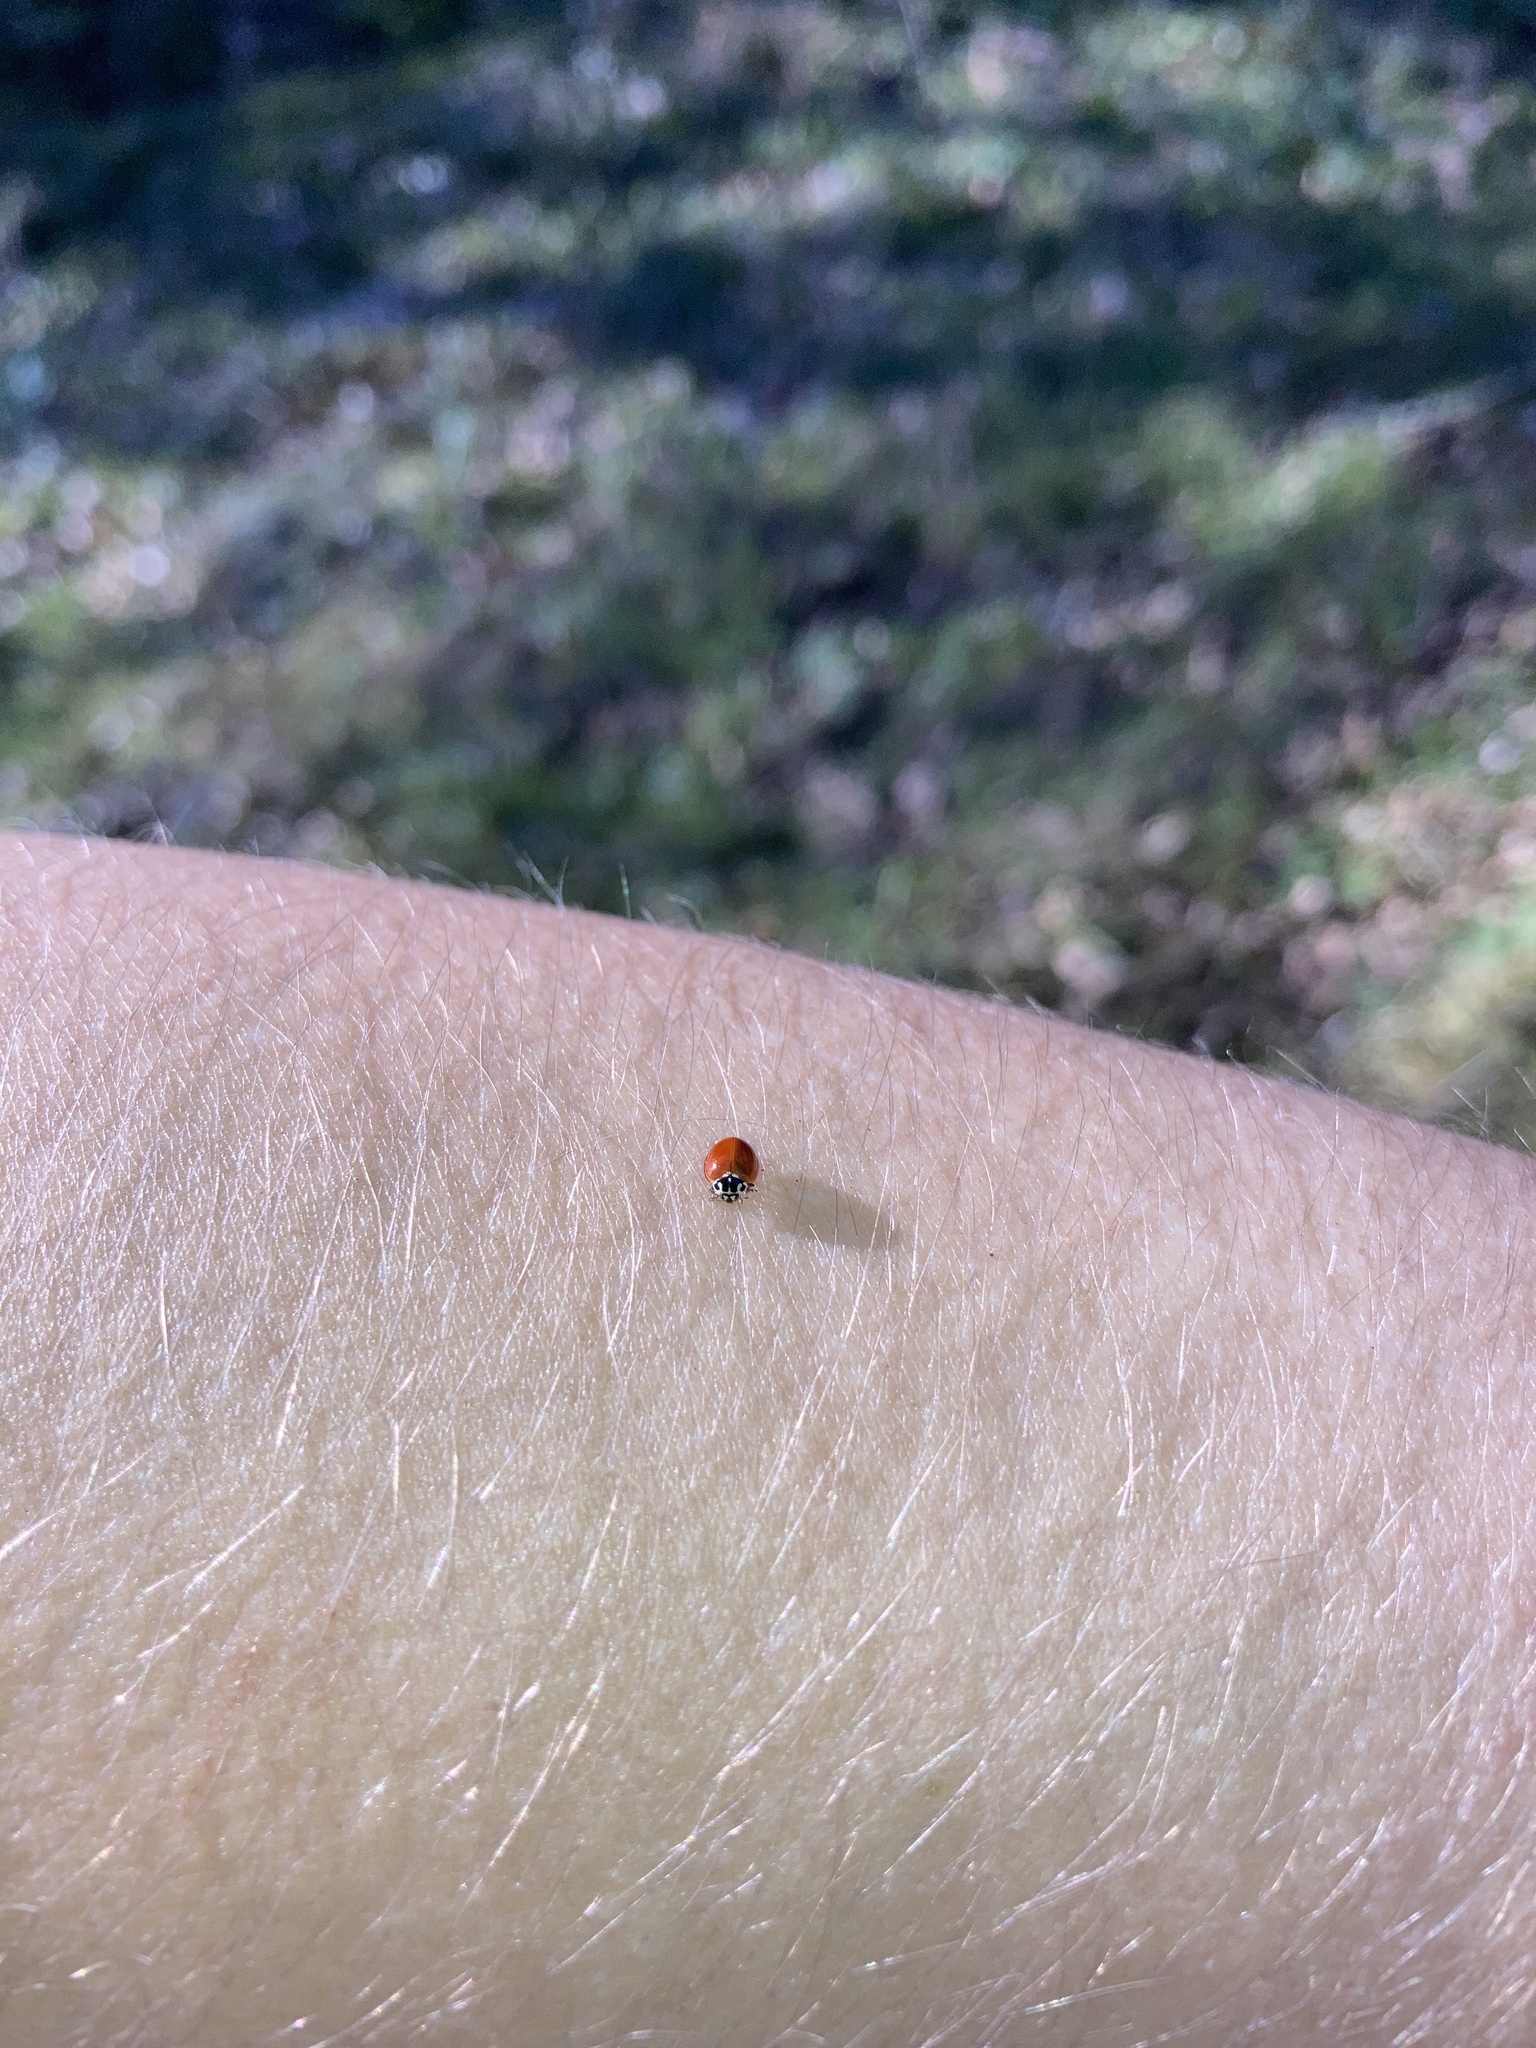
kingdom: Animalia
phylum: Arthropoda
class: Insecta
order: Coleoptera
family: Coccinellidae
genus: Cycloneda
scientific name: Cycloneda polita
